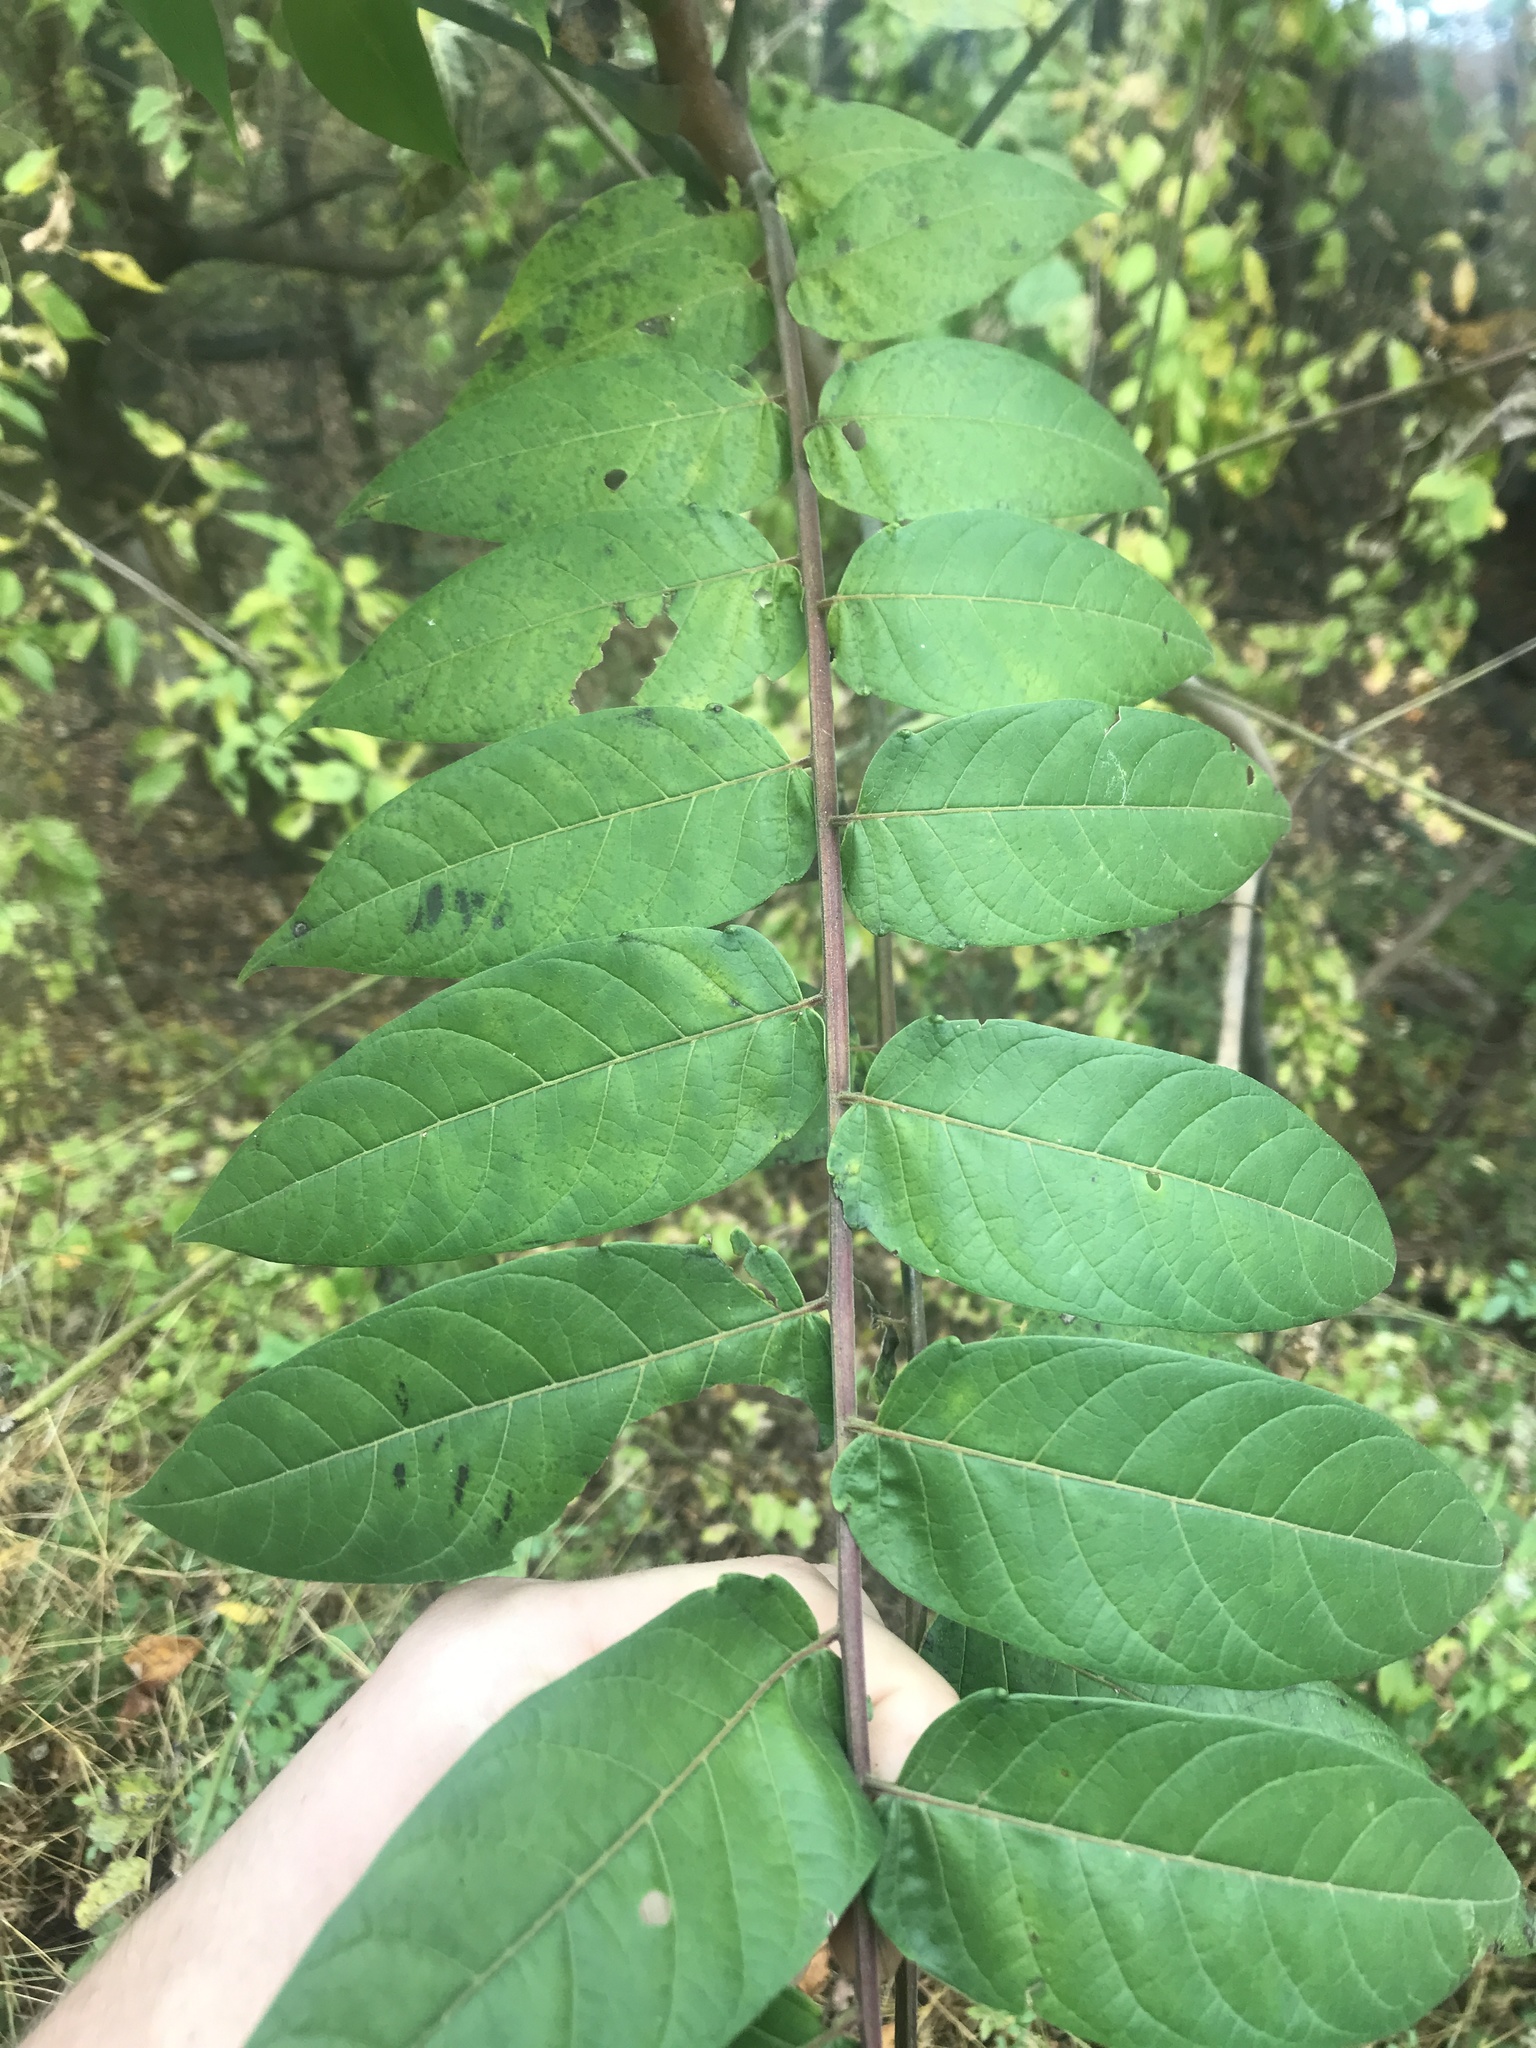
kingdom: Plantae
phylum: Tracheophyta
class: Magnoliopsida
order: Sapindales
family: Simaroubaceae
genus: Ailanthus
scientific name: Ailanthus altissima
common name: Tree-of-heaven
